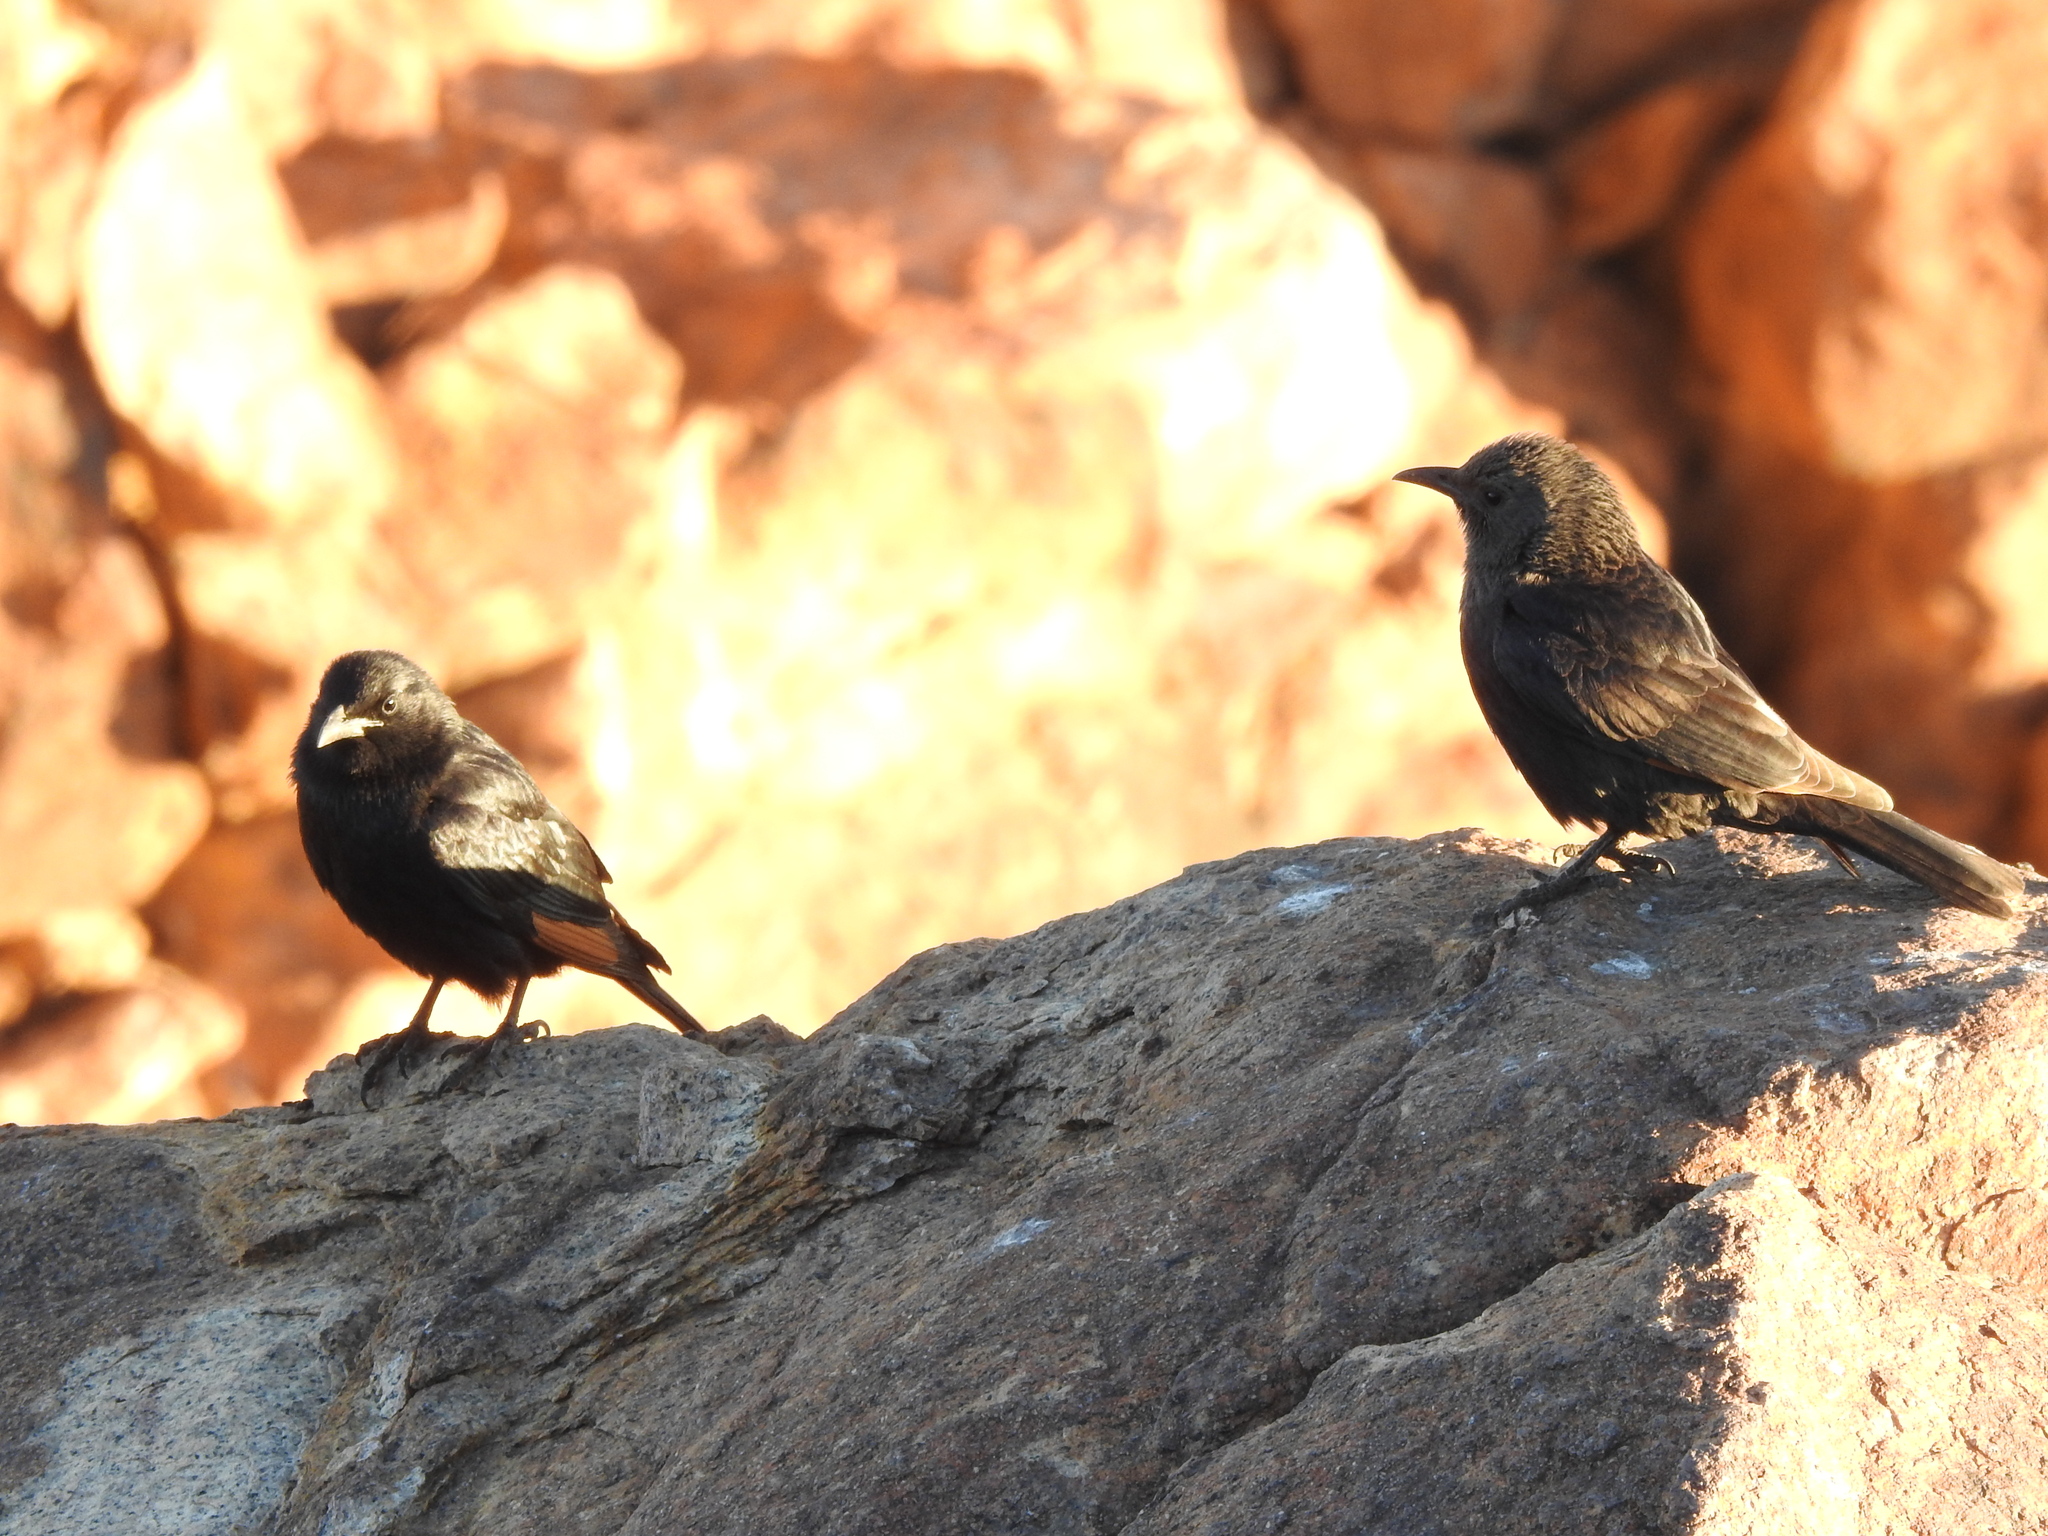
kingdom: Animalia
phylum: Chordata
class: Aves
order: Passeriformes
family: Sturnidae
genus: Onychognathus
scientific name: Onychognathus tristramii
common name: Tristram's starling
